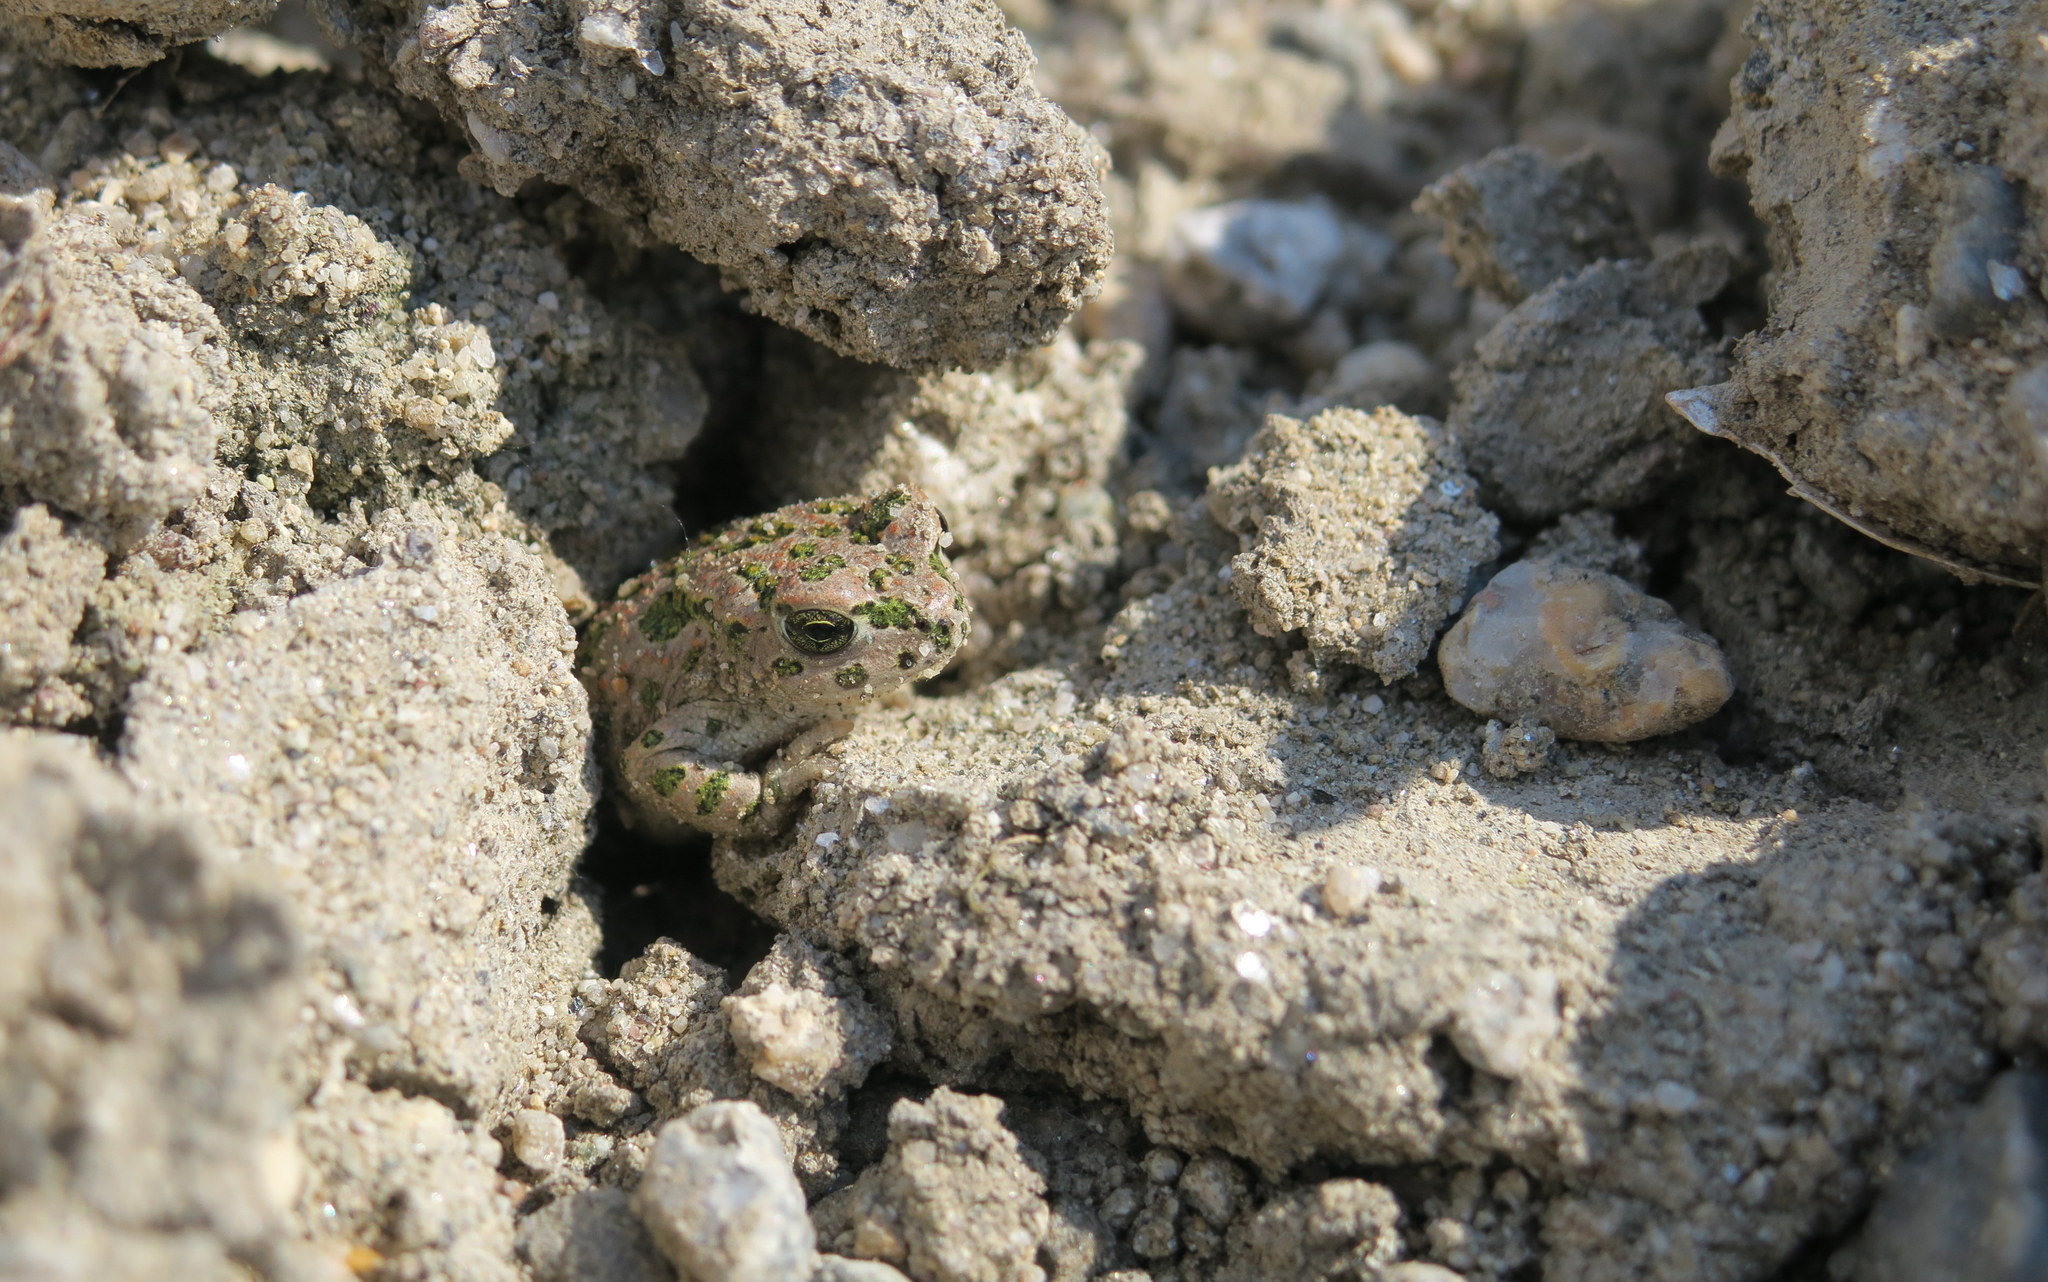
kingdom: Animalia
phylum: Chordata
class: Amphibia
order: Anura
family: Bufonidae
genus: Bufotes
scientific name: Bufotes viridis
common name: European green toad
